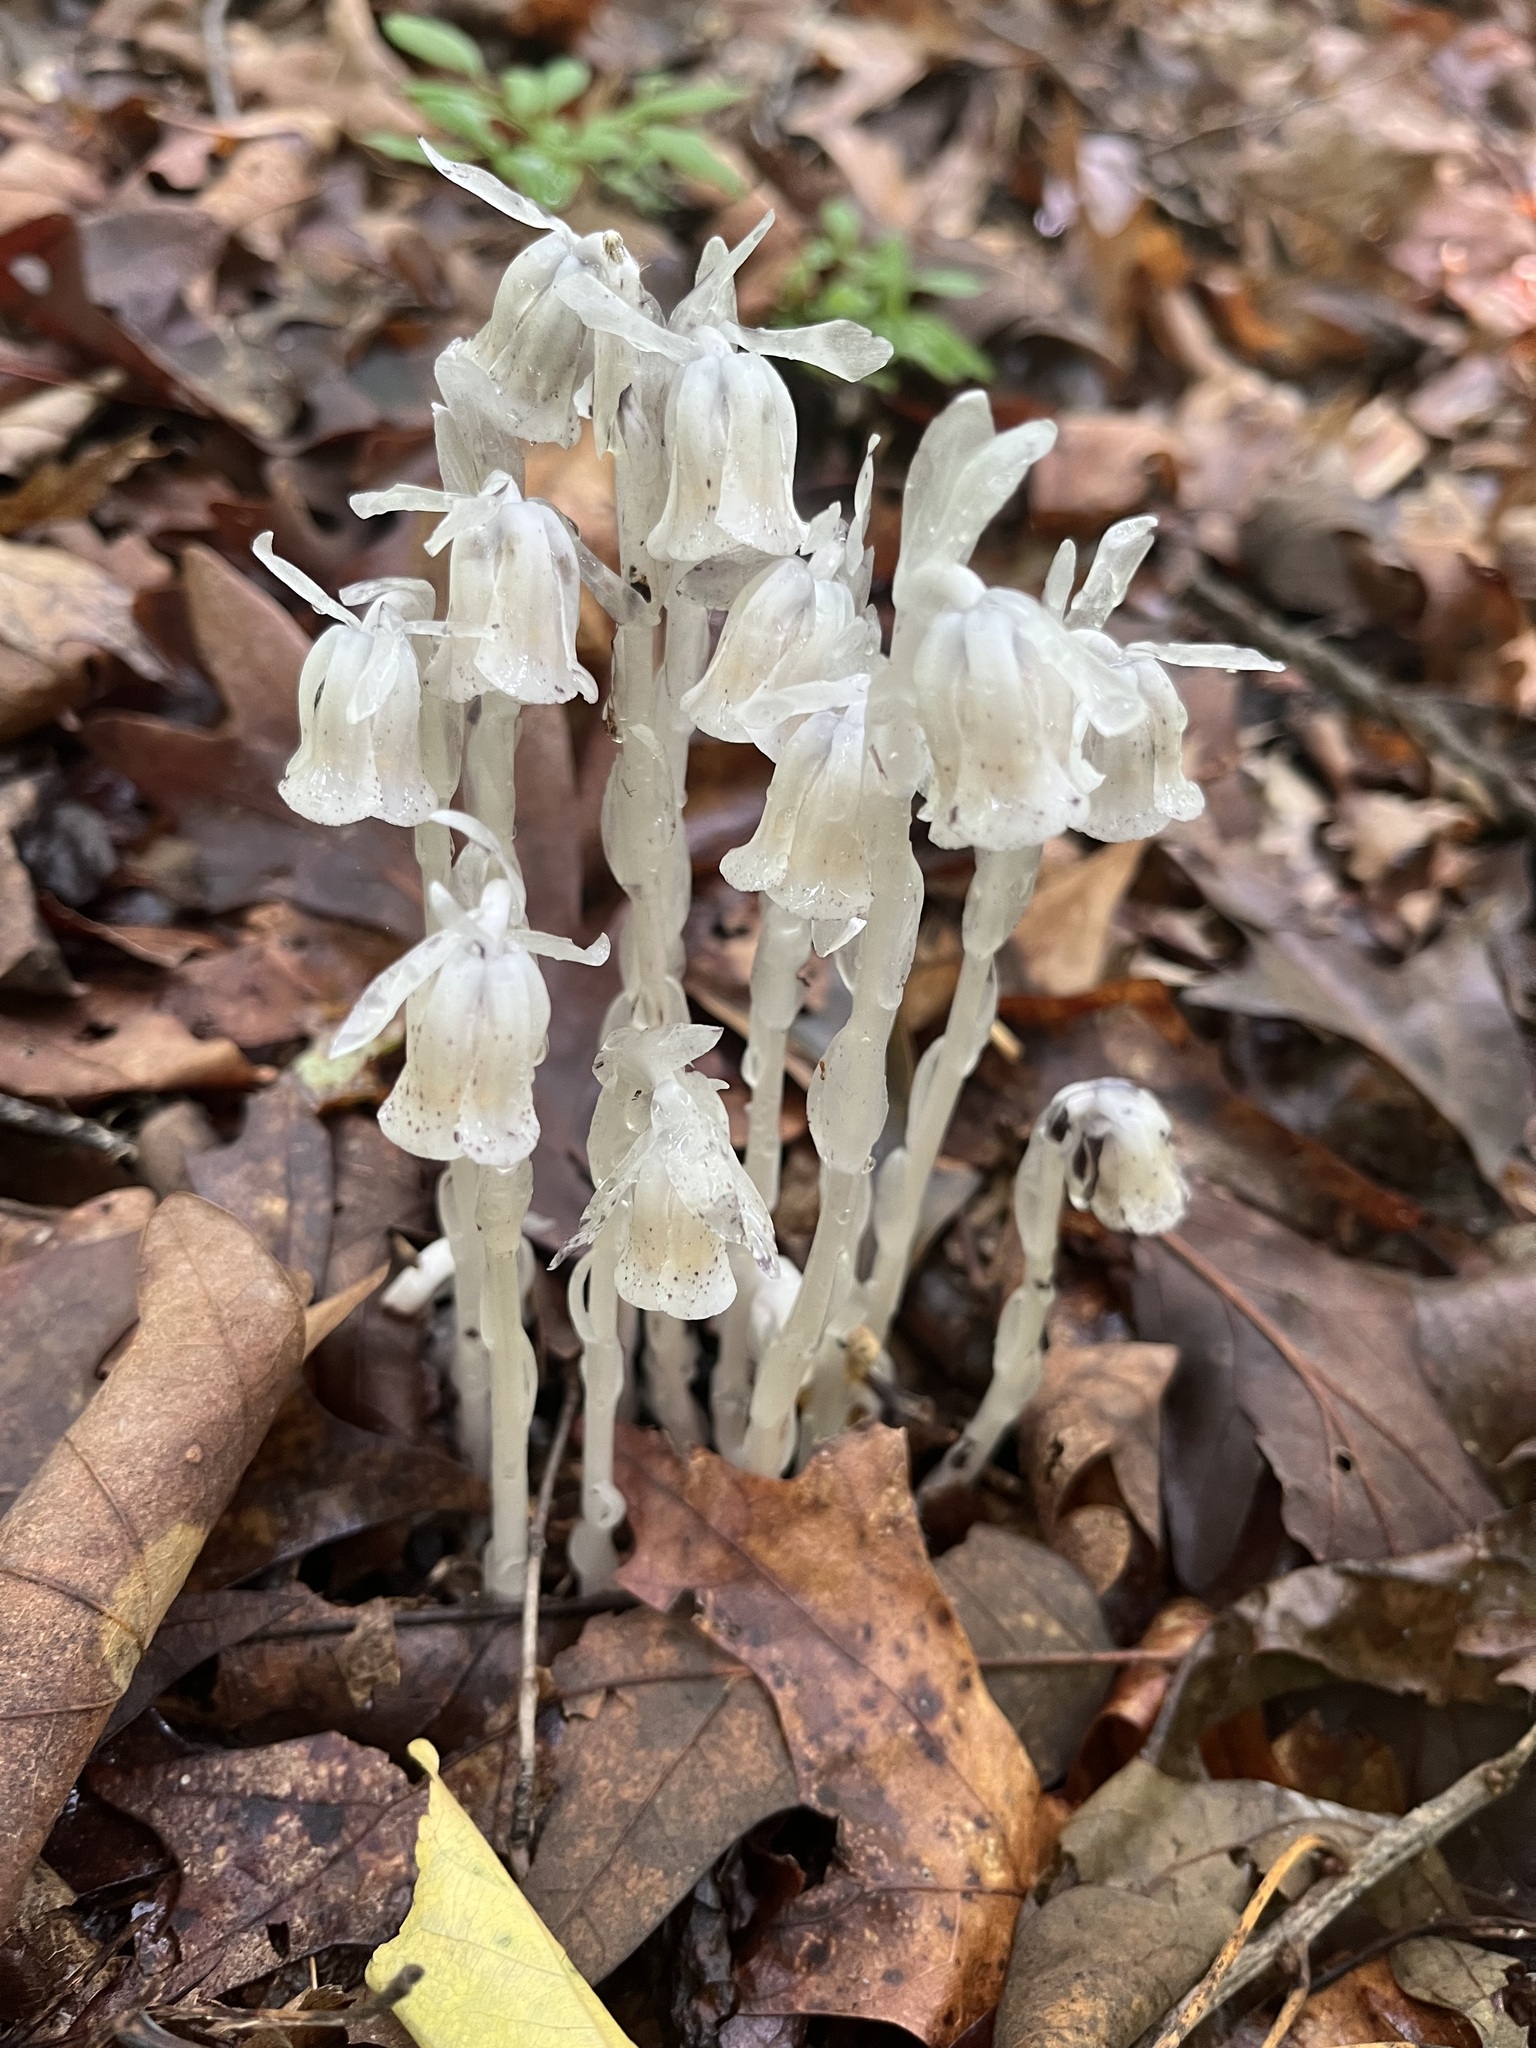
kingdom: Plantae
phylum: Tracheophyta
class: Magnoliopsida
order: Ericales
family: Ericaceae
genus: Monotropa
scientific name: Monotropa uniflora
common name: Convulsion root
